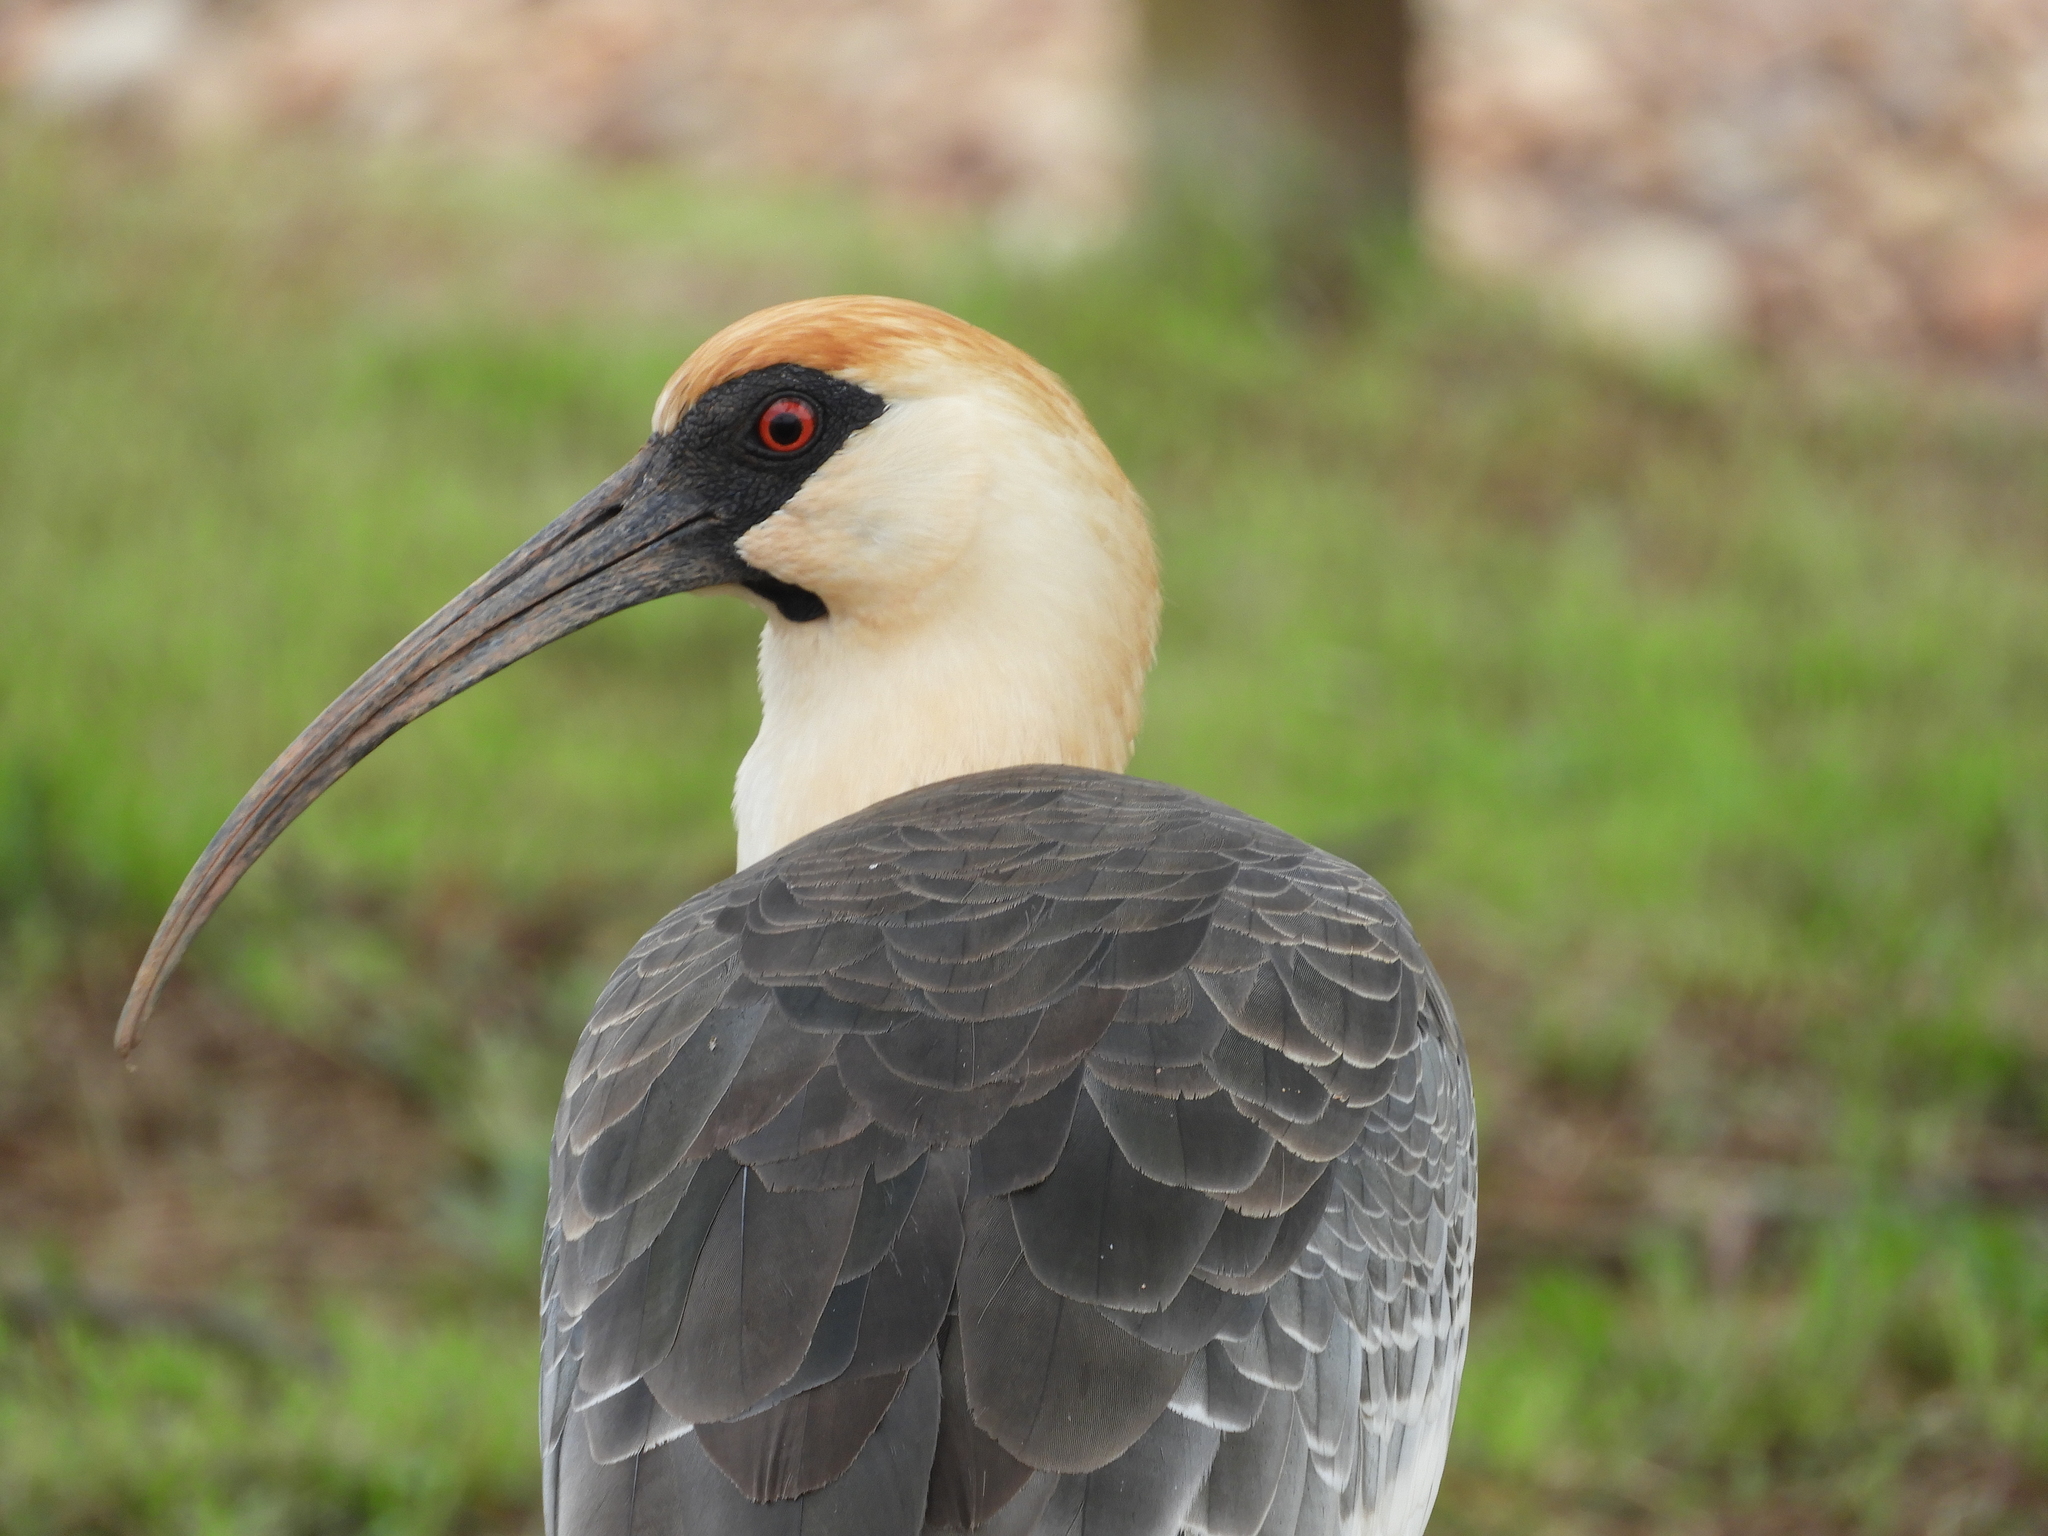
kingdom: Animalia
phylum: Chordata
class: Aves
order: Pelecaniformes
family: Threskiornithidae
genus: Theristicus
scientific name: Theristicus caudatus
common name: Buff-necked ibis
